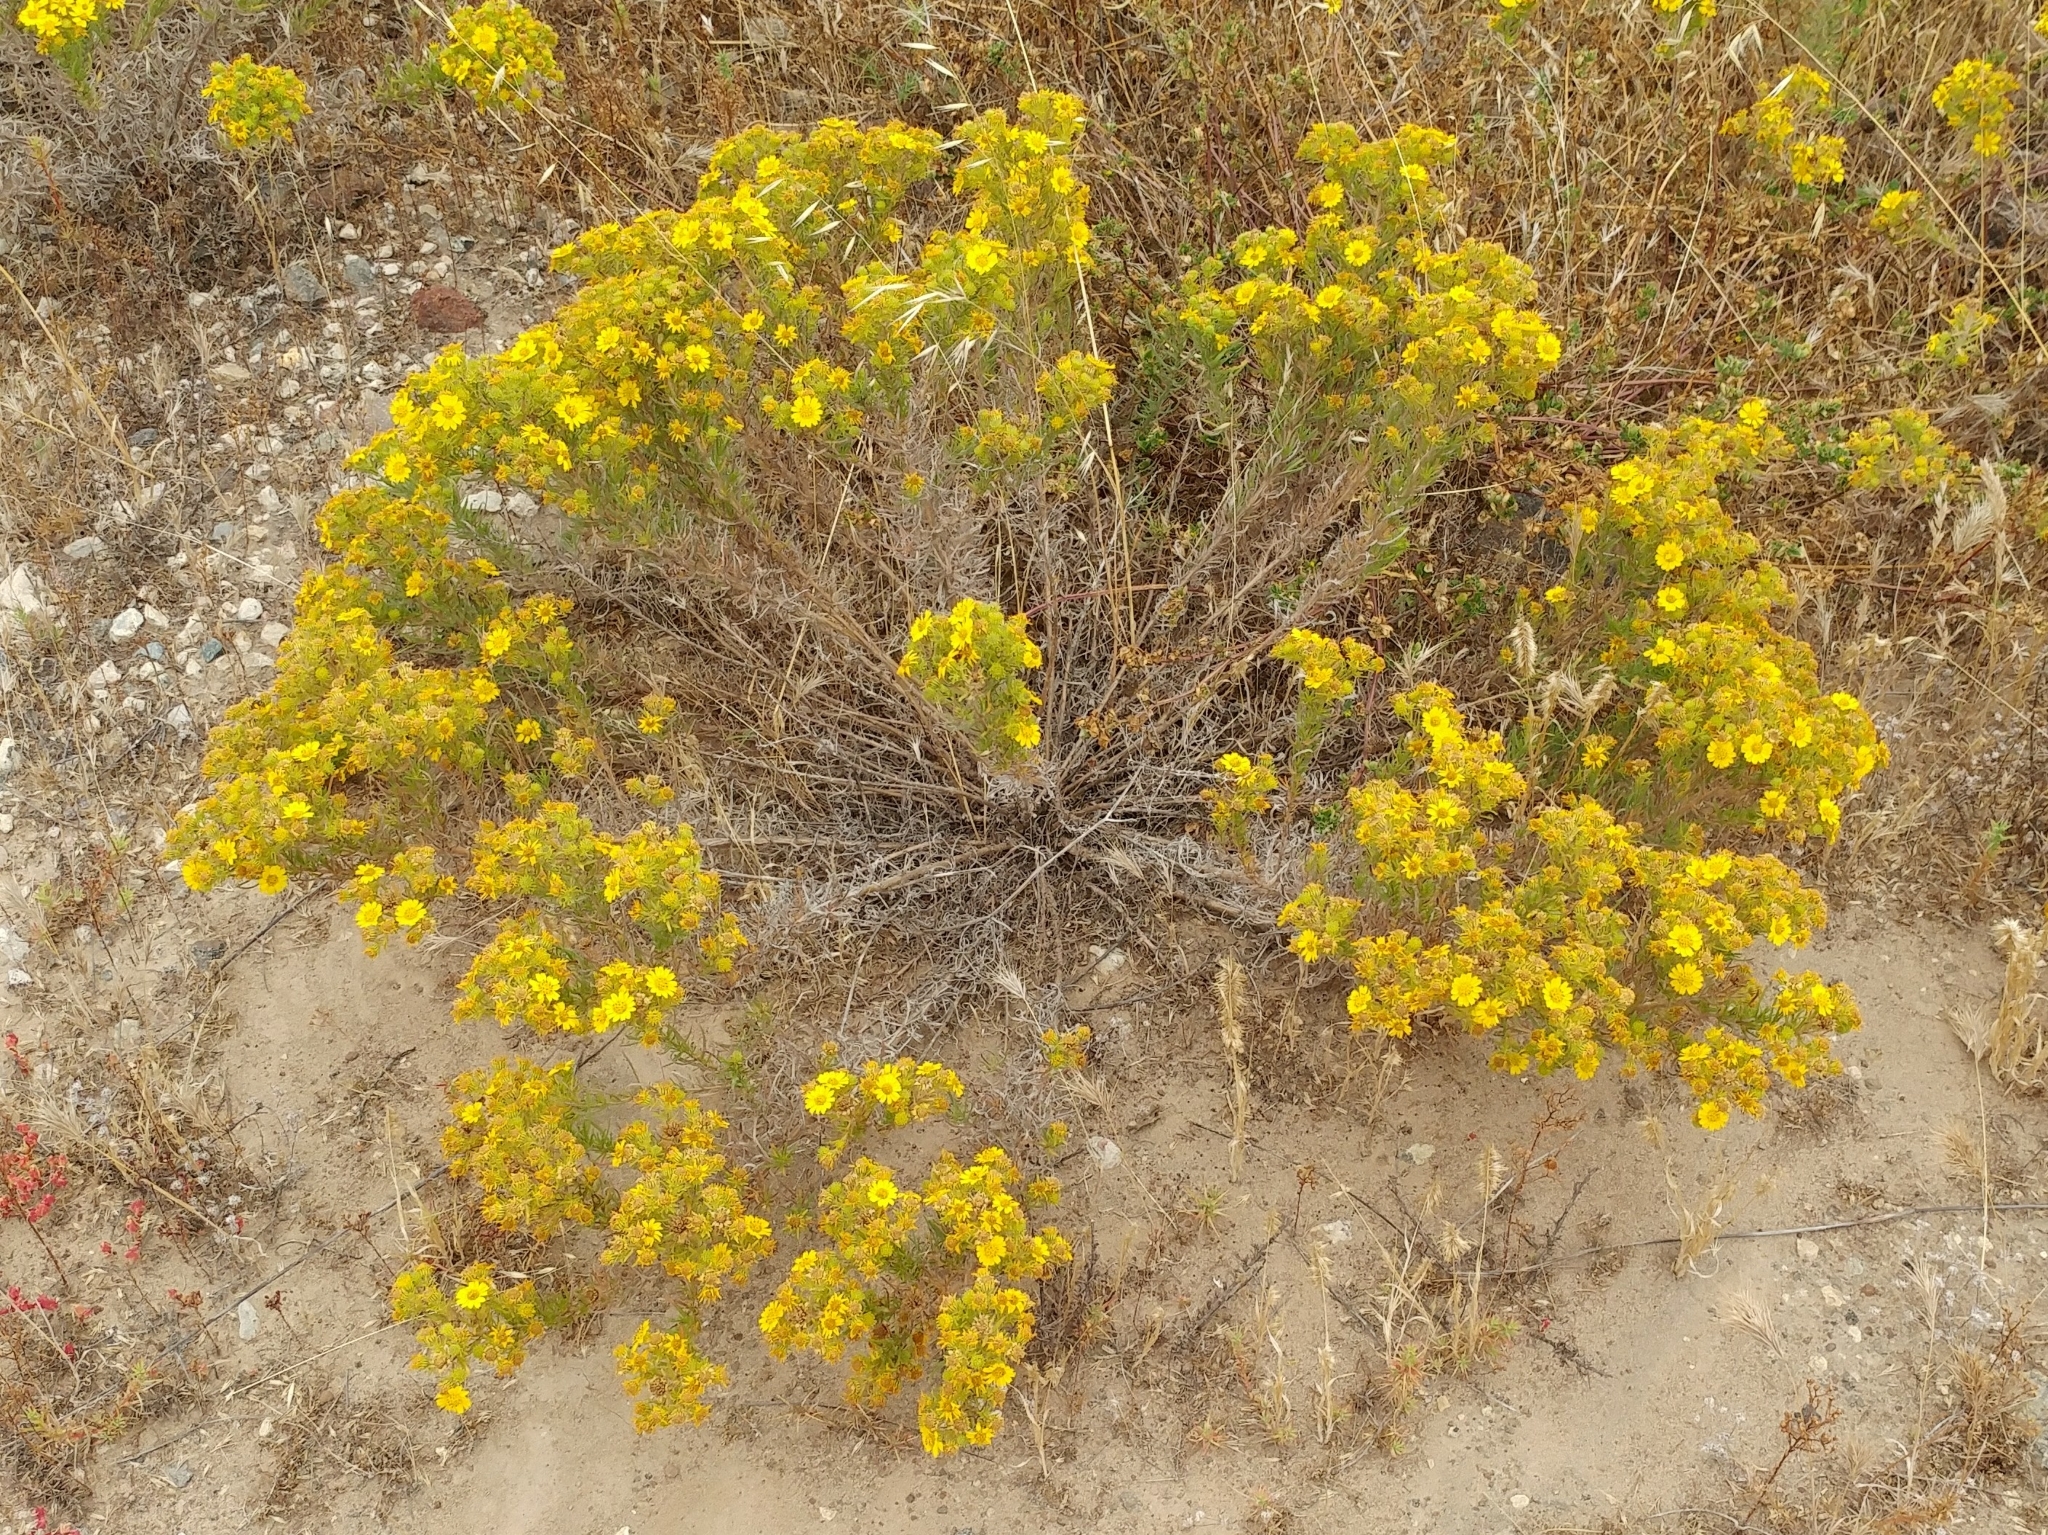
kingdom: Plantae
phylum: Tracheophyta
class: Magnoliopsida
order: Asterales
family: Asteraceae
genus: Deinandra
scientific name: Deinandra clementina
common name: Island tarplant
